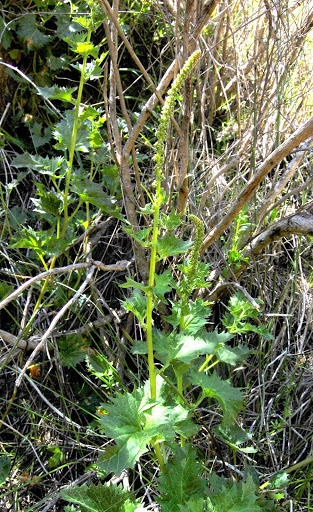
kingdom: Plantae
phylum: Tracheophyta
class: Magnoliopsida
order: Caryophyllales
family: Amaranthaceae
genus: Blitum
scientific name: Blitum californicum
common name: California goosefoot
